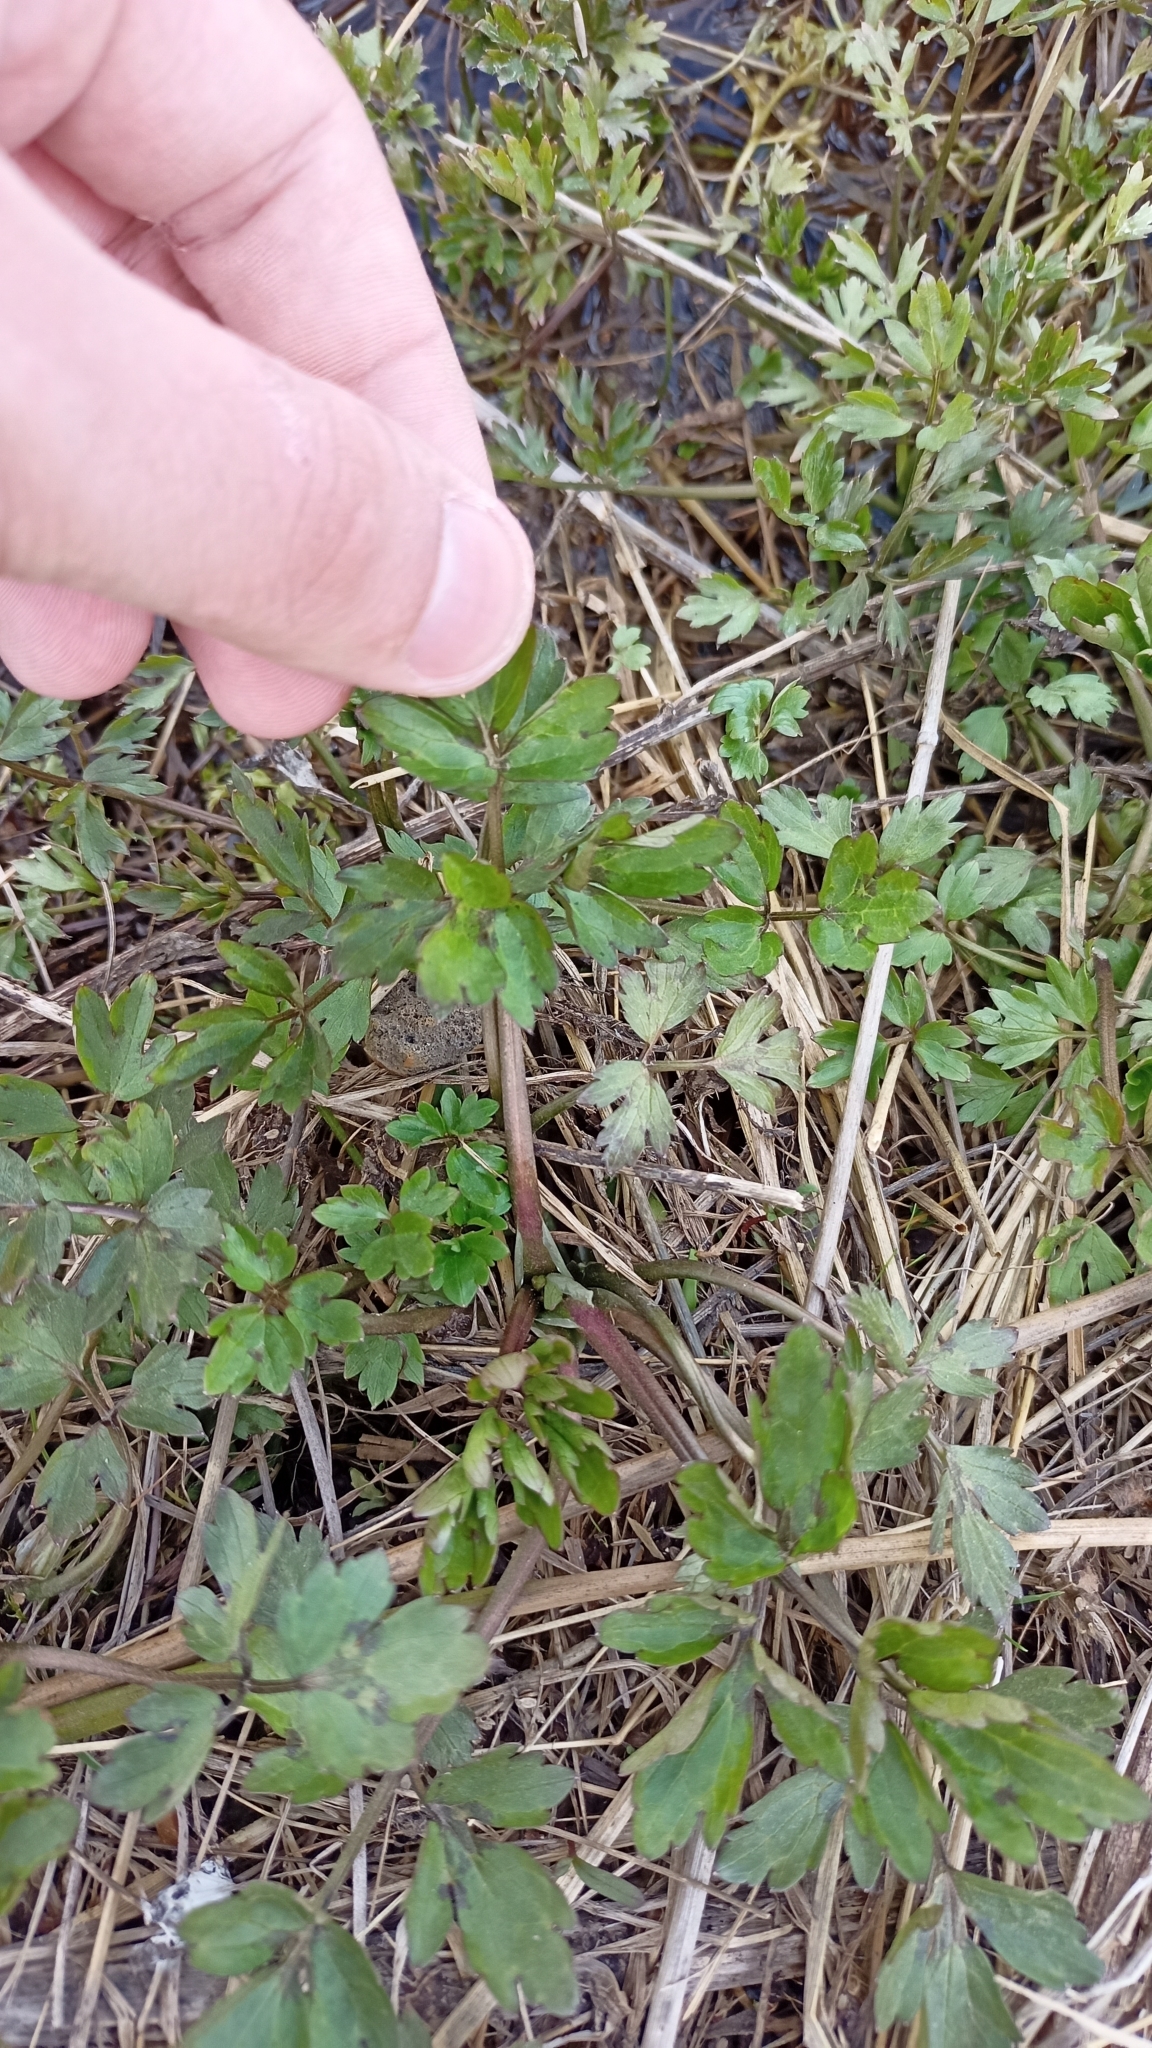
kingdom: Plantae
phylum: Tracheophyta
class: Magnoliopsida
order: Ranunculales
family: Ranunculaceae
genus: Ranunculus
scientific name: Ranunculus repens
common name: Creeping buttercup
